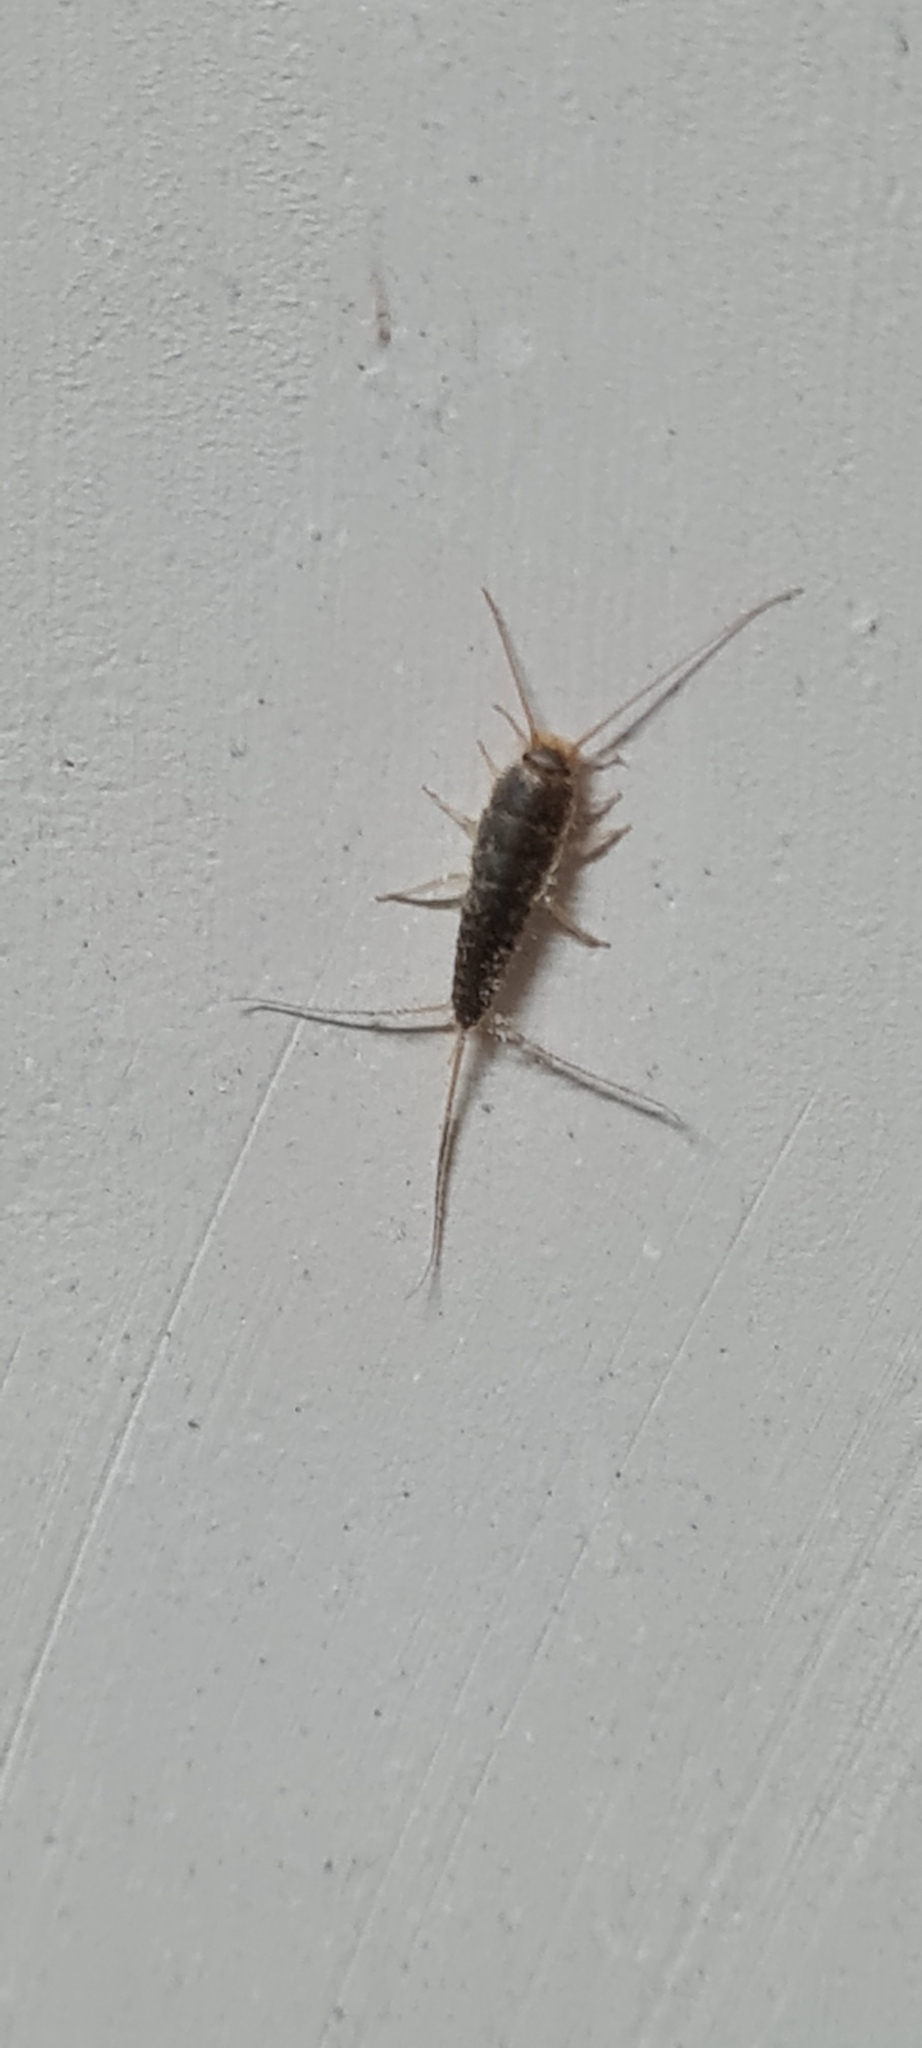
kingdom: Animalia
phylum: Arthropoda
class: Insecta
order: Zygentoma
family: Lepismatidae
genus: Ctenolepisma
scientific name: Ctenolepisma longicaudatum
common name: Silverfish
